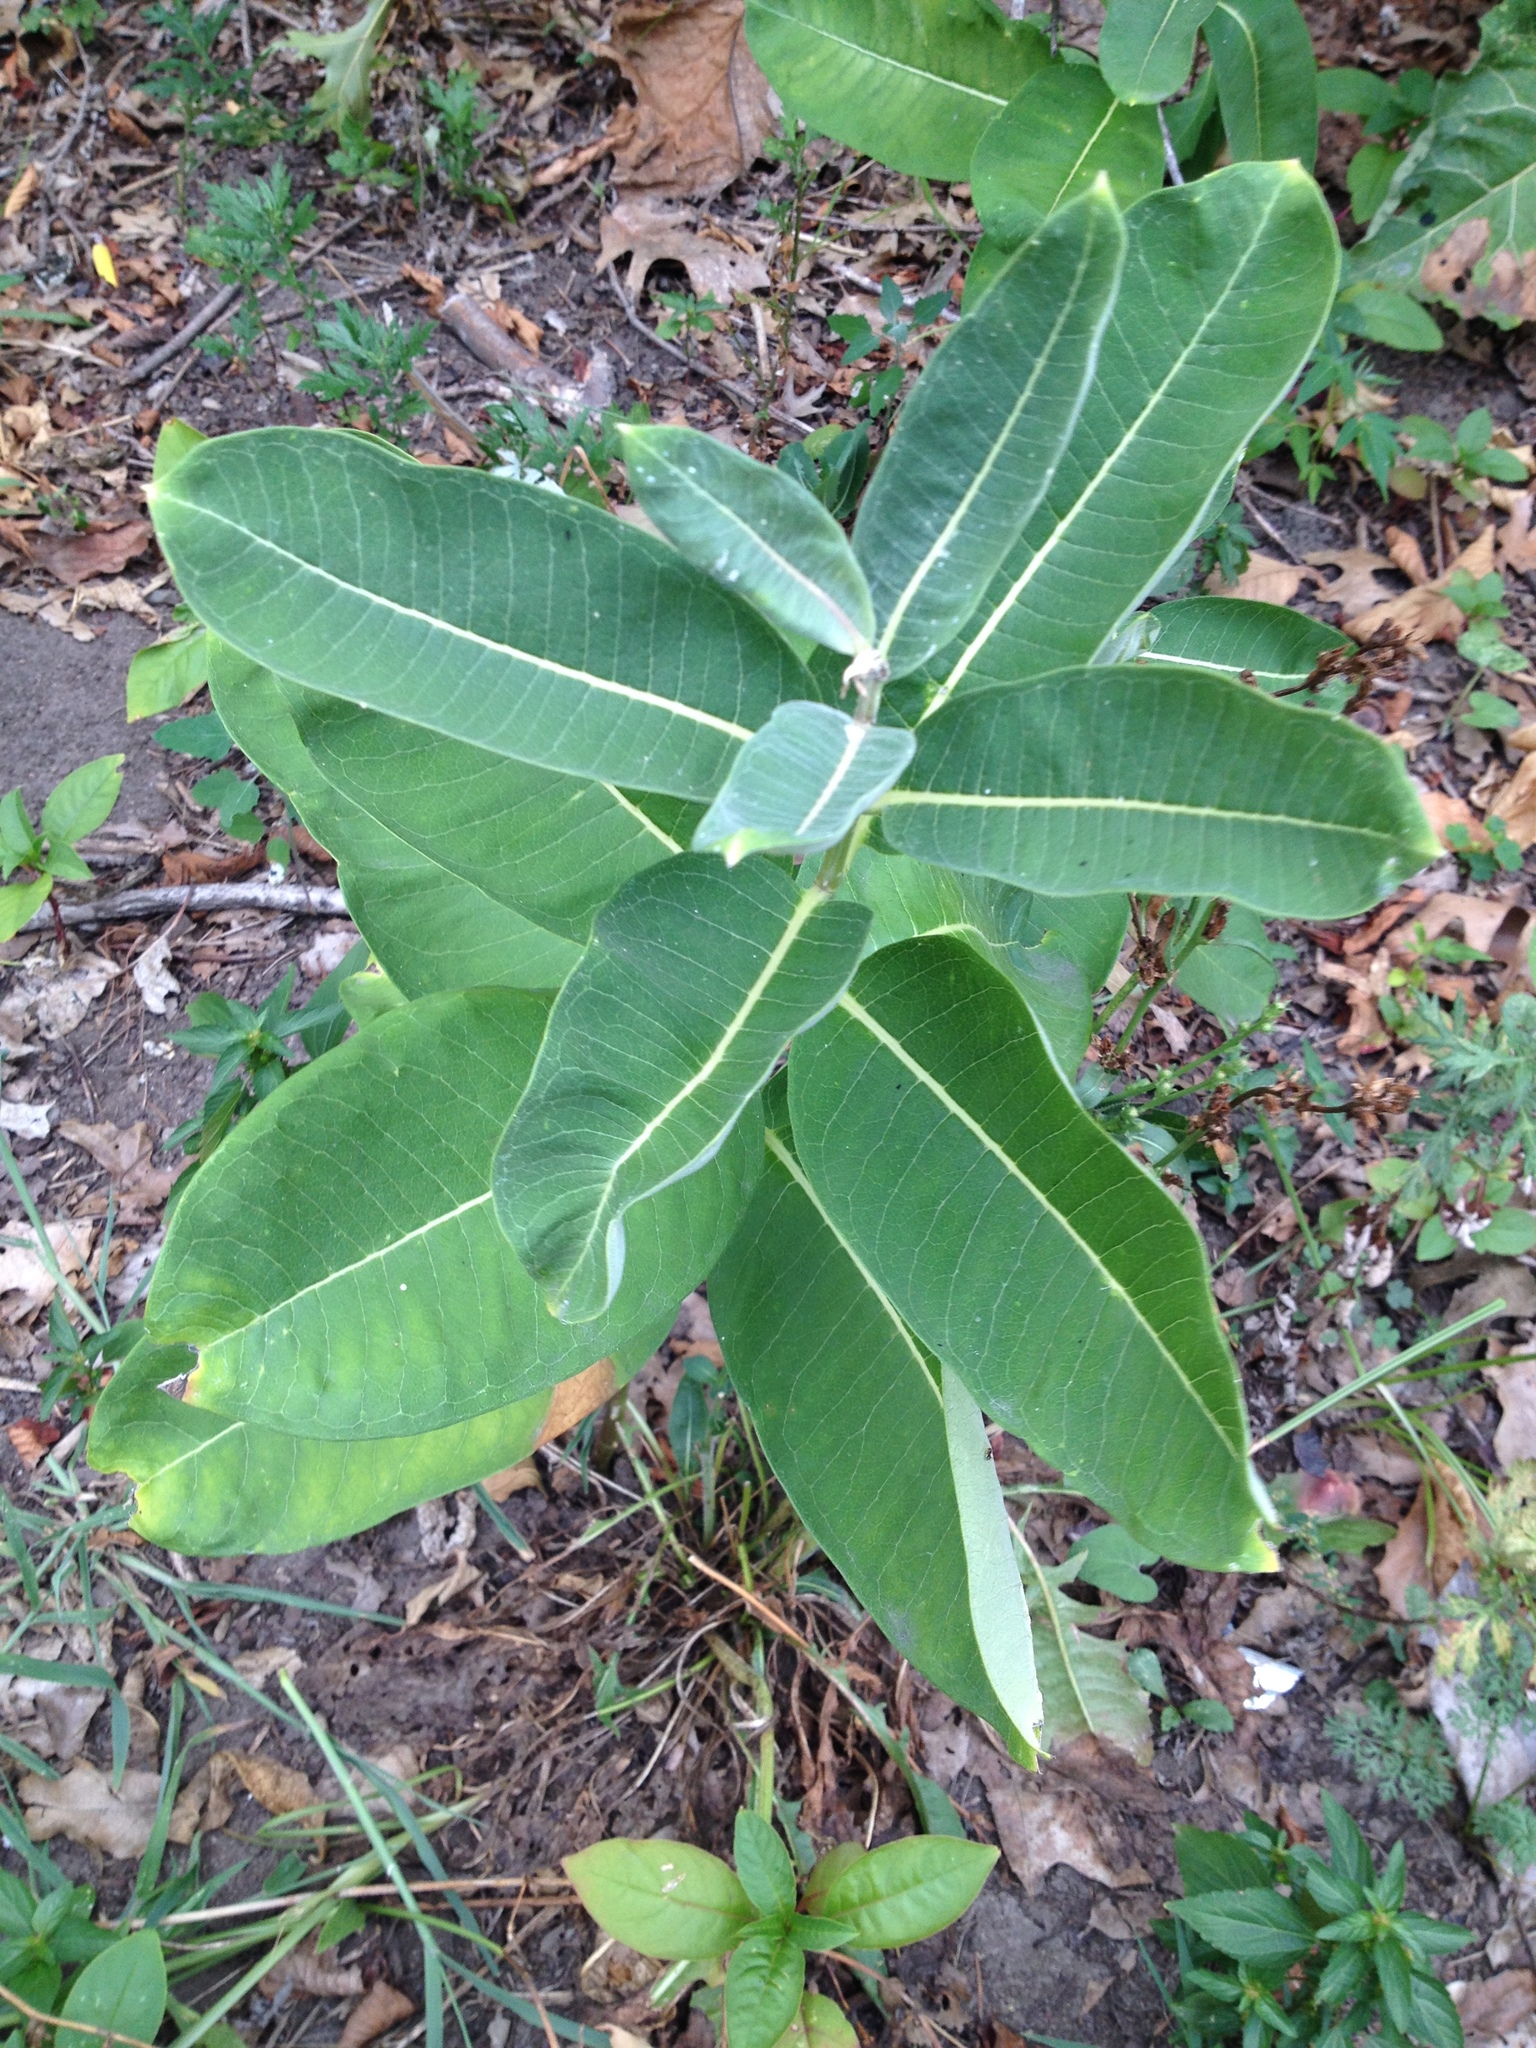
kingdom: Plantae
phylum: Tracheophyta
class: Magnoliopsida
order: Gentianales
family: Apocynaceae
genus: Asclepias
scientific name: Asclepias syriaca
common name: Common milkweed
